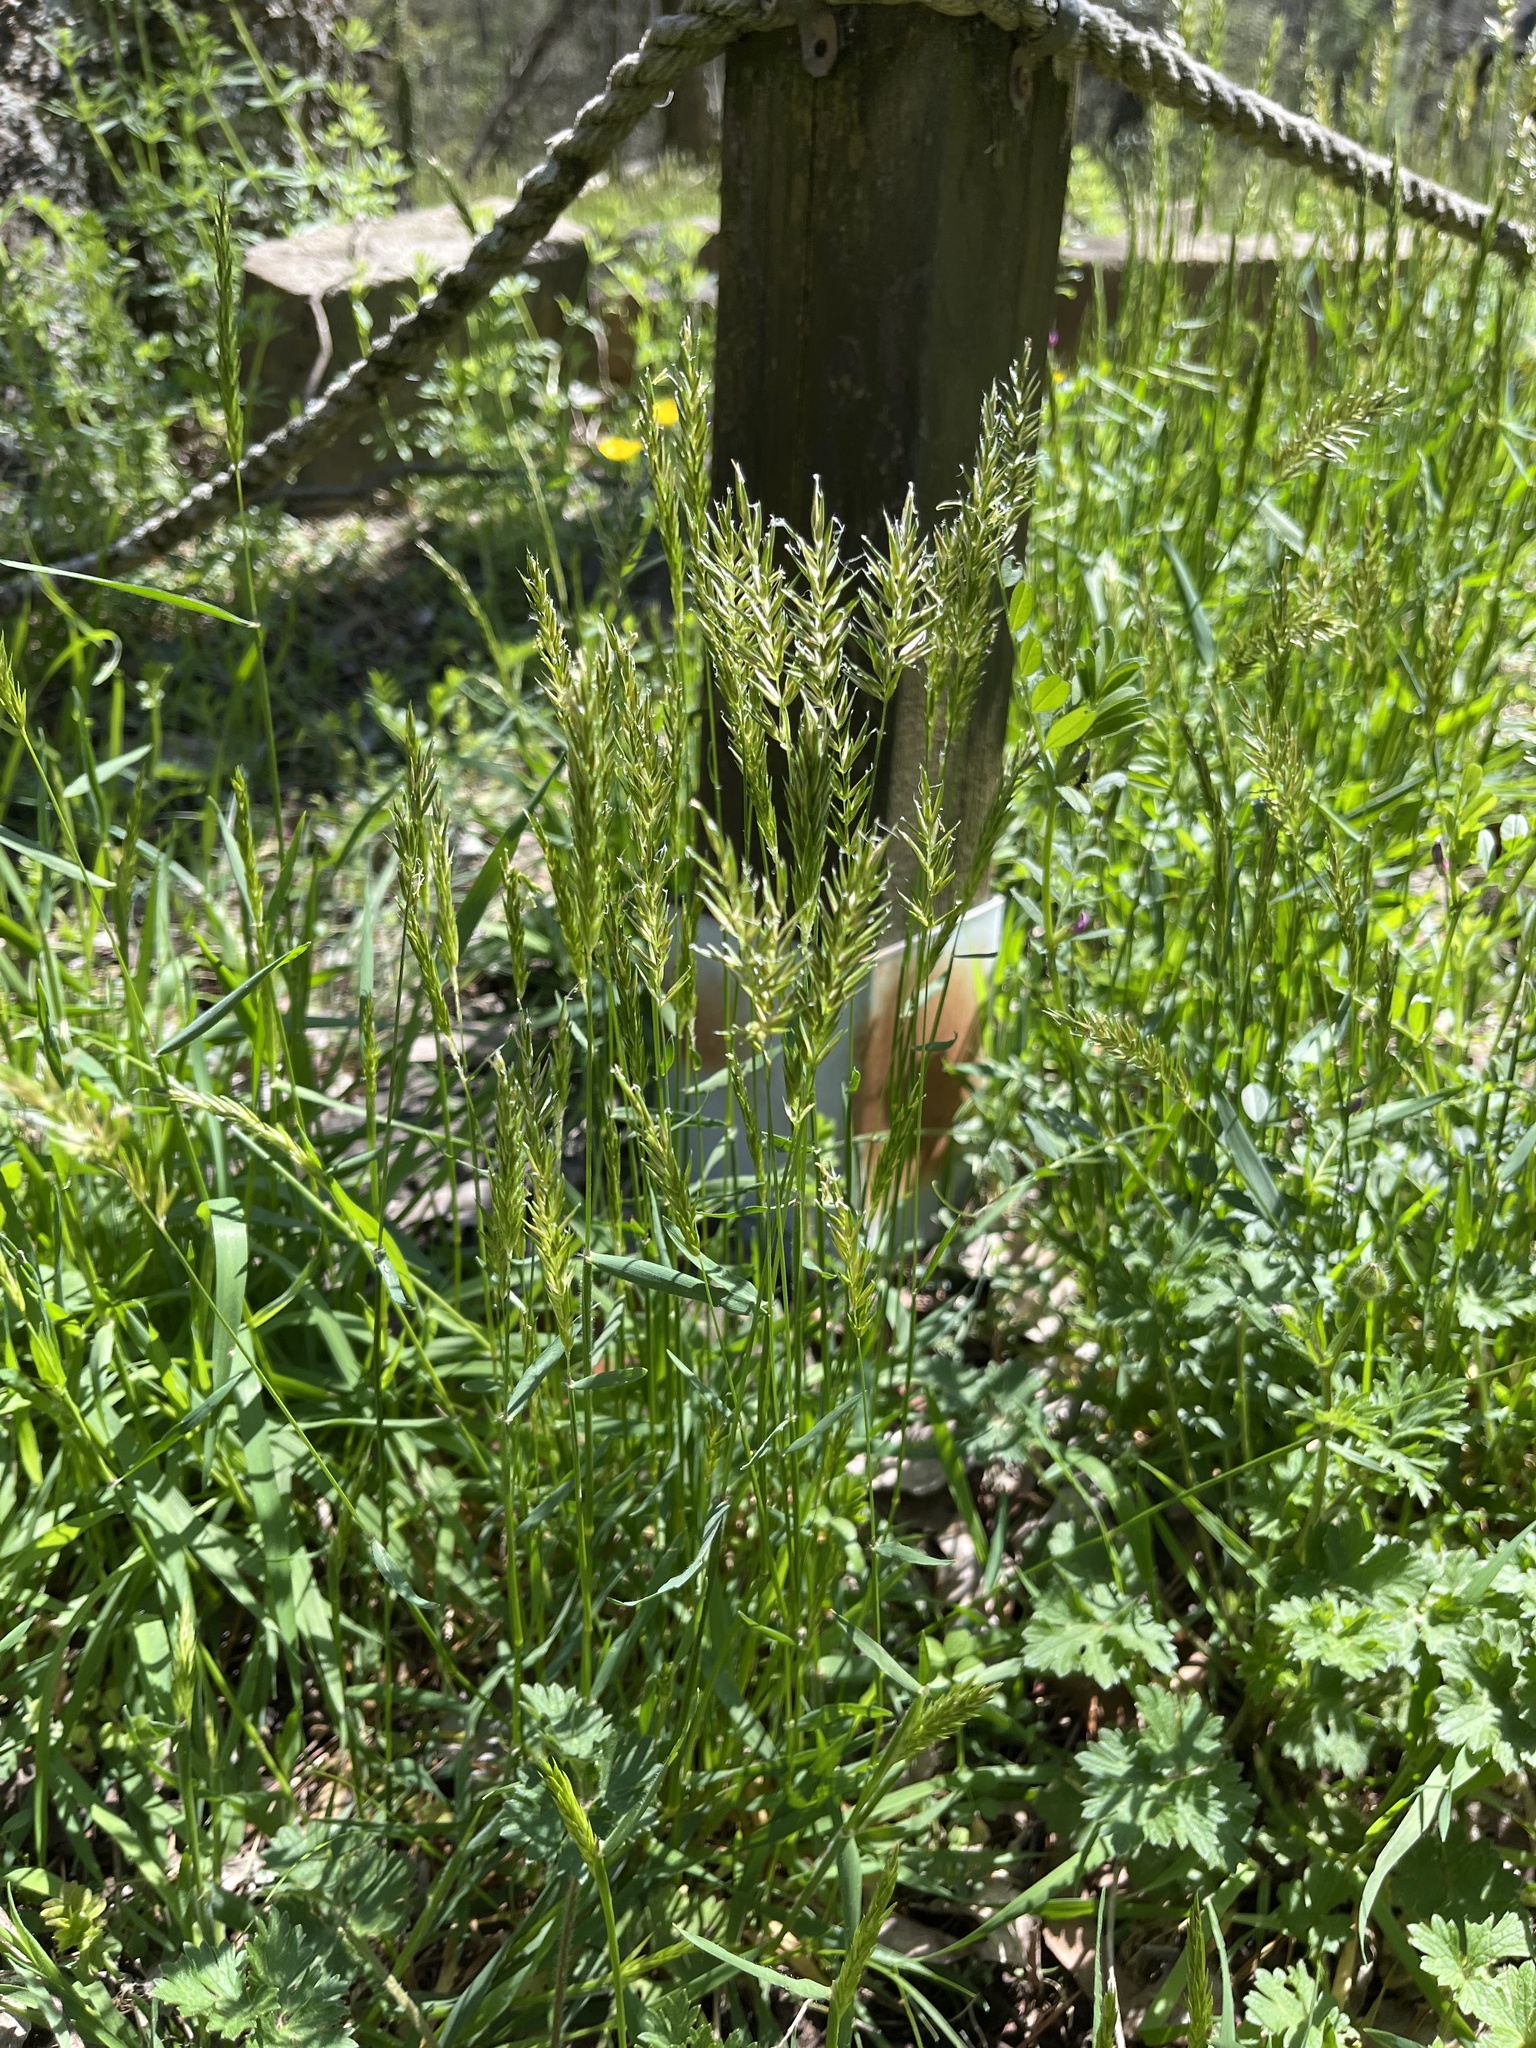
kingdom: Plantae
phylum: Tracheophyta
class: Liliopsida
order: Poales
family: Poaceae
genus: Anthoxanthum
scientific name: Anthoxanthum odoratum
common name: Sweet vernalgrass
